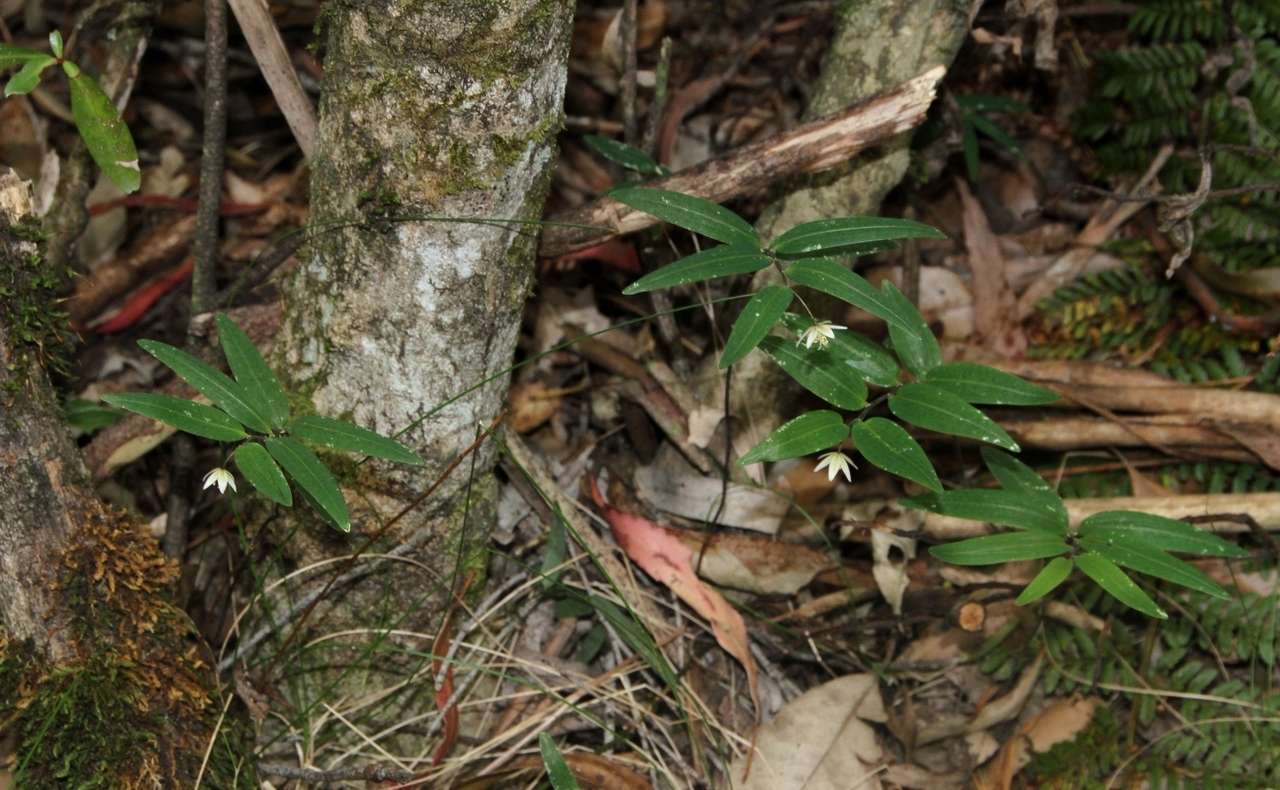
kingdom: Plantae
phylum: Tracheophyta
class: Liliopsida
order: Liliales
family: Alstroemeriaceae
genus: Drymophila
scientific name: Drymophila cyanocarpa
